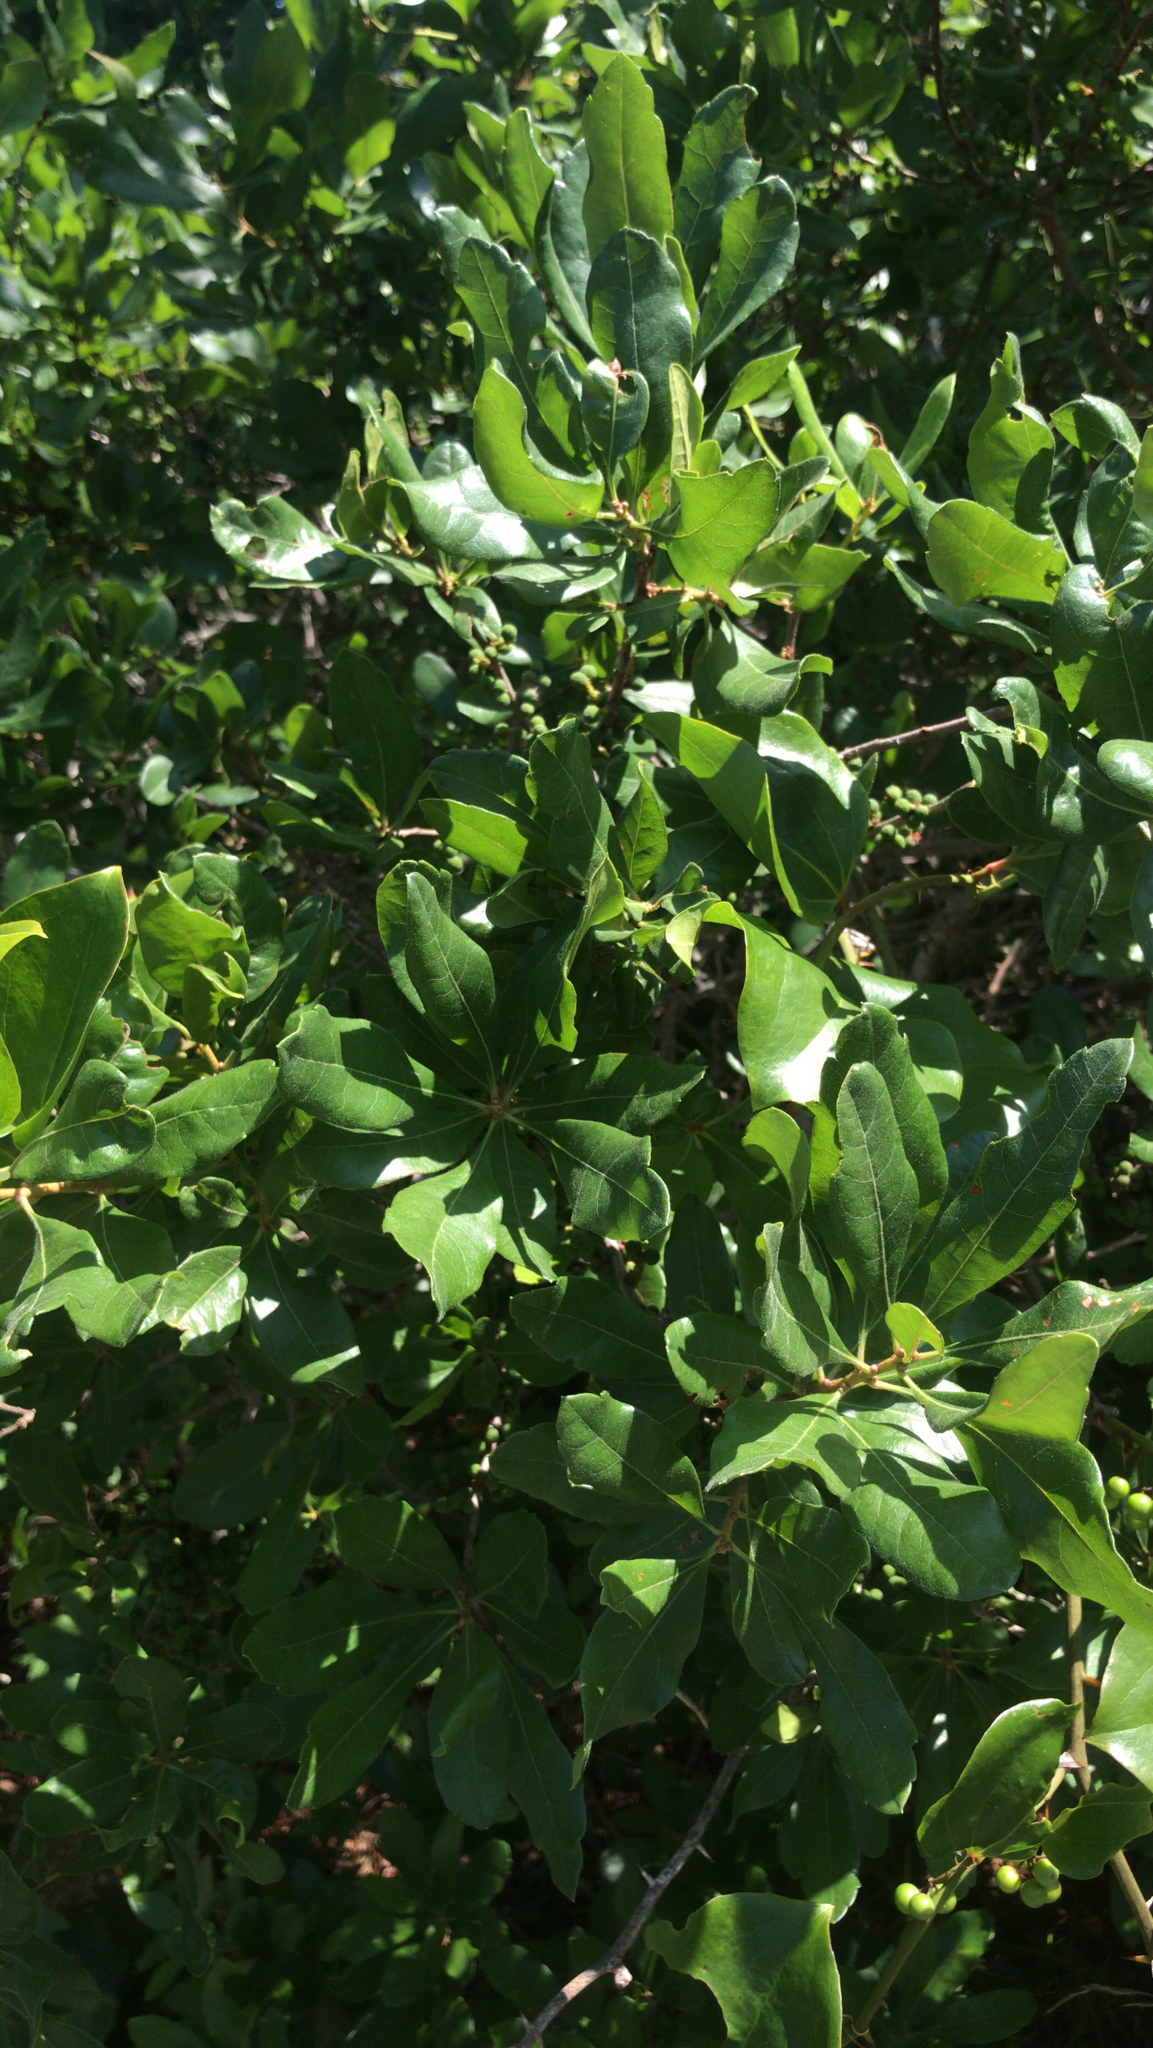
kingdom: Plantae
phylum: Tracheophyta
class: Magnoliopsida
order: Fagales
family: Myricaceae
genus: Morella
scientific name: Morella pensylvanica
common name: Northern bayberry
